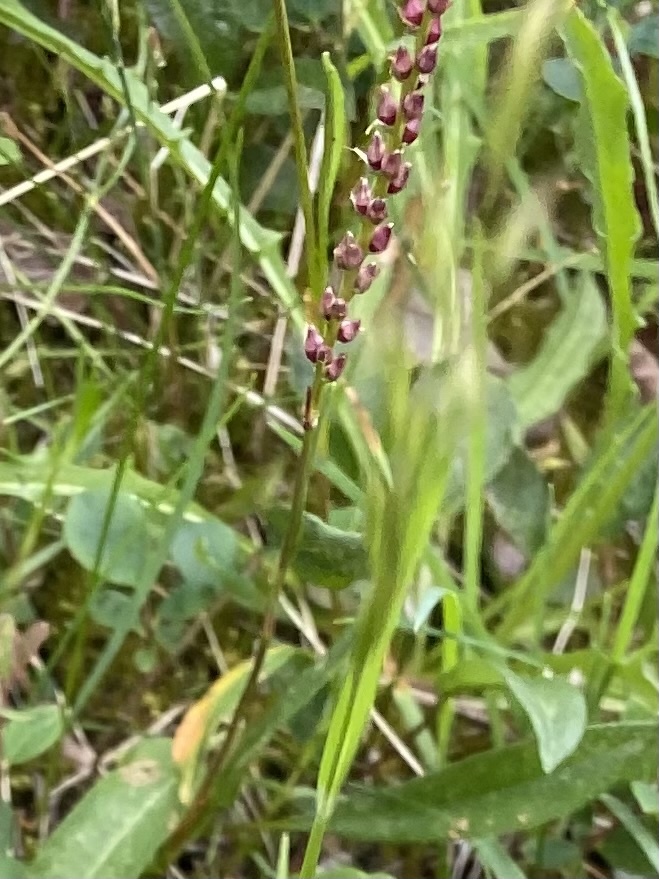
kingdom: Plantae
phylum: Tracheophyta
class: Magnoliopsida
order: Caryophyllales
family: Polygonaceae
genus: Bistorta
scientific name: Bistorta vivipara
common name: Alpine bistort
